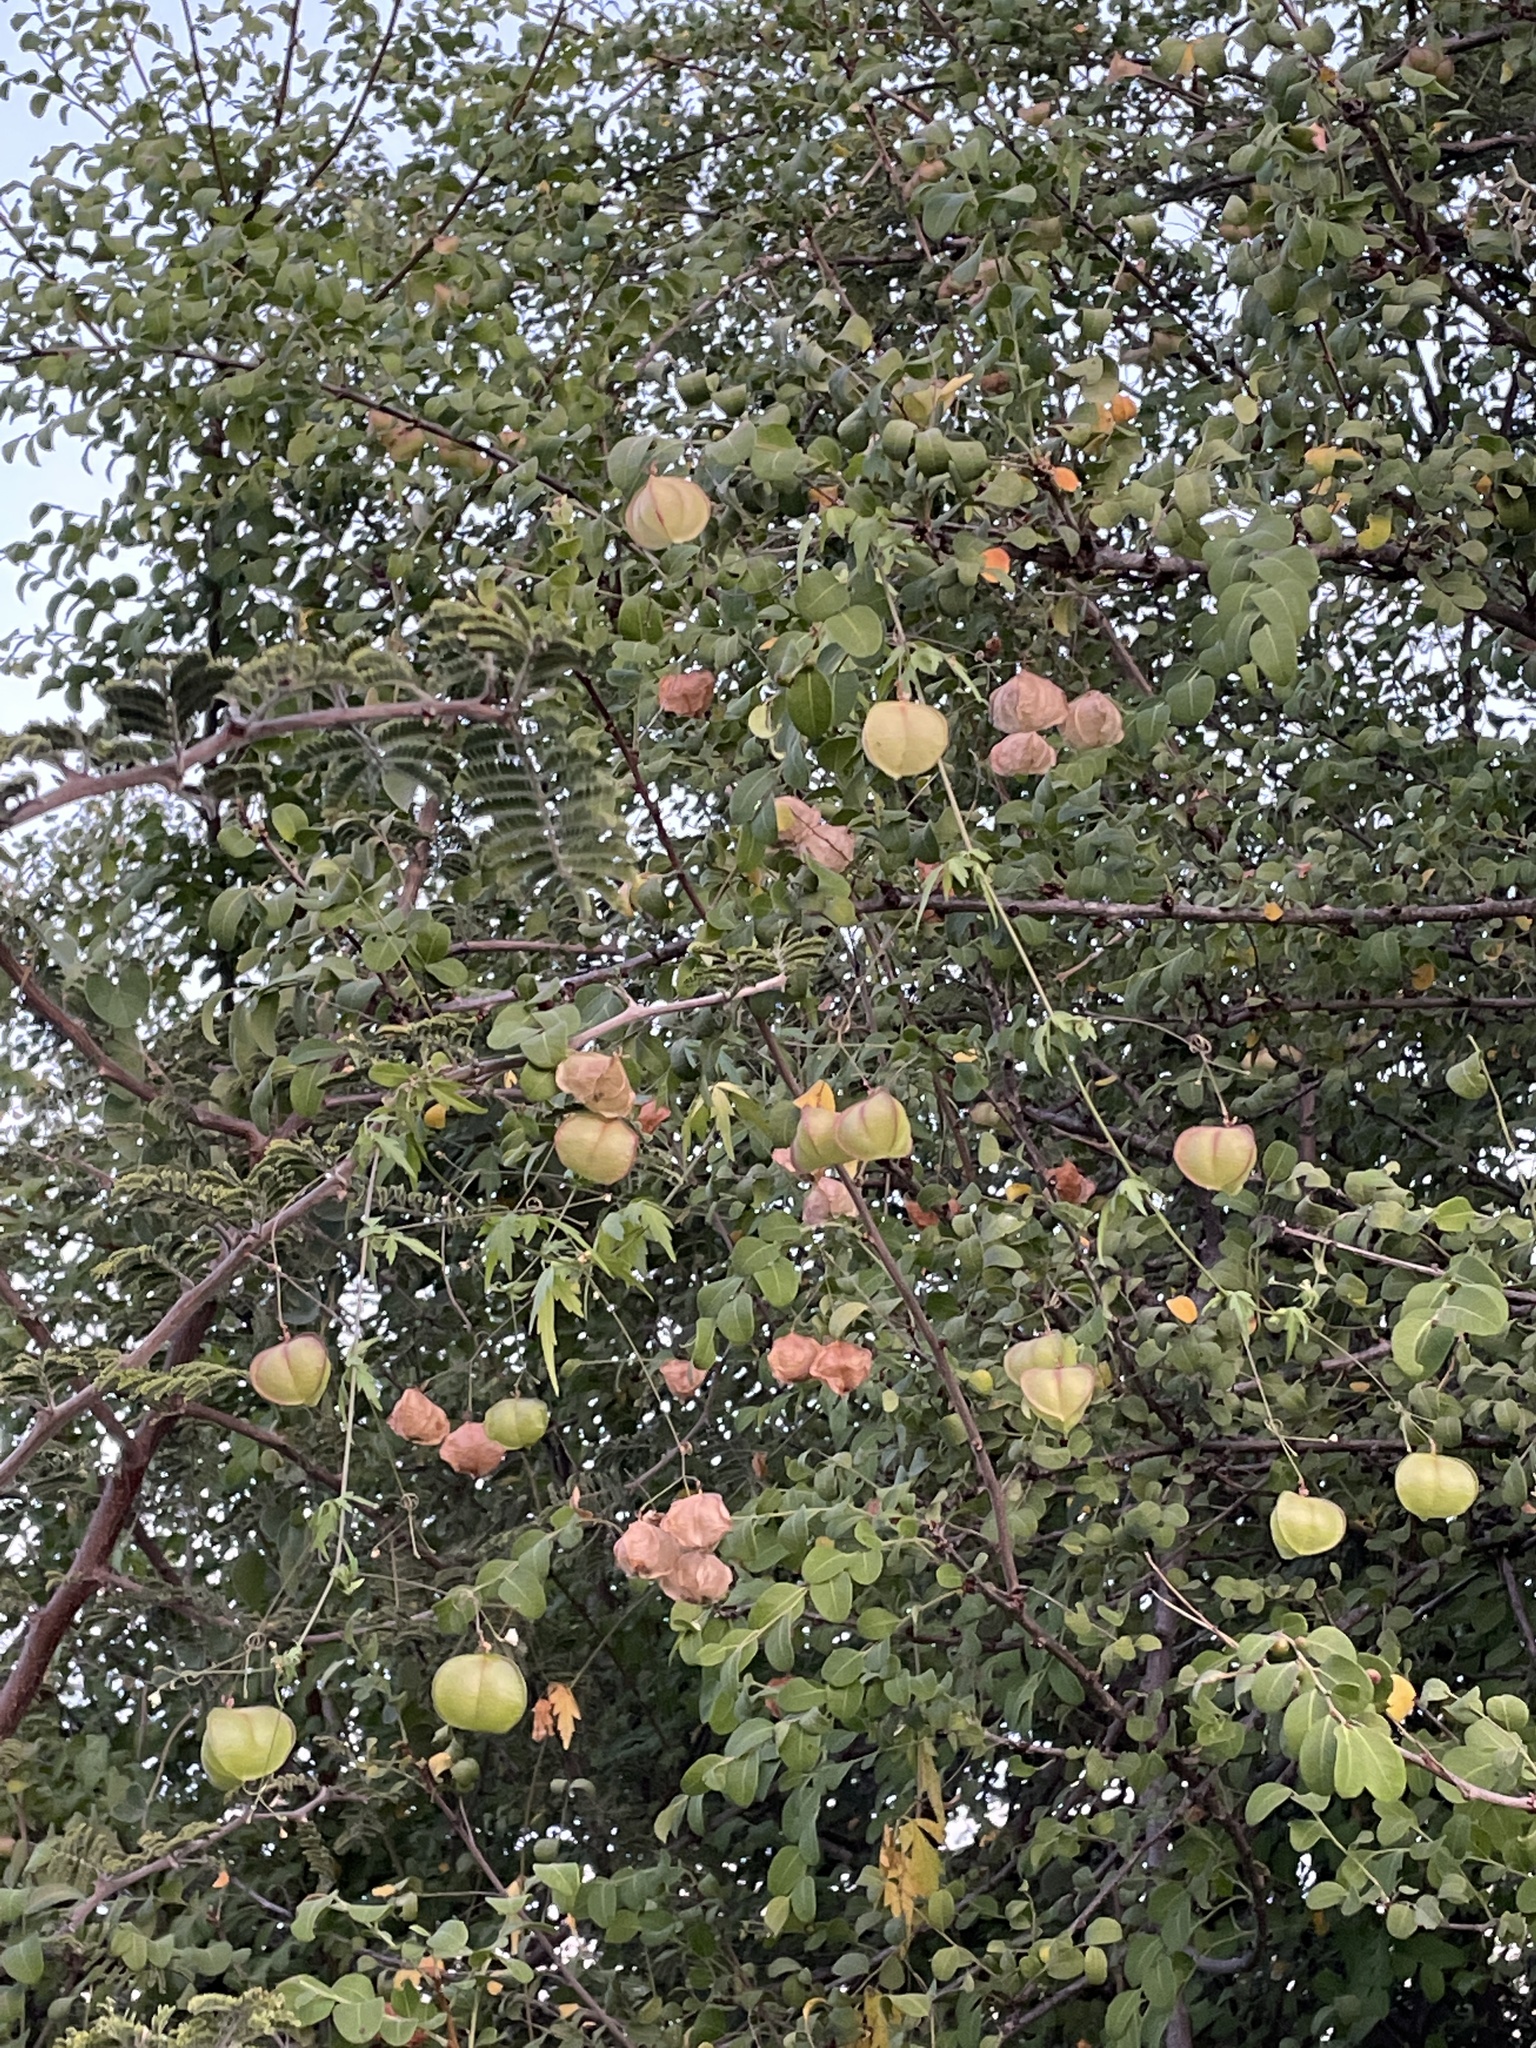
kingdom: Plantae
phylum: Tracheophyta
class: Magnoliopsida
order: Sapindales
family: Sapindaceae
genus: Cardiospermum
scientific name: Cardiospermum halicacabum
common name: Balloon vine
